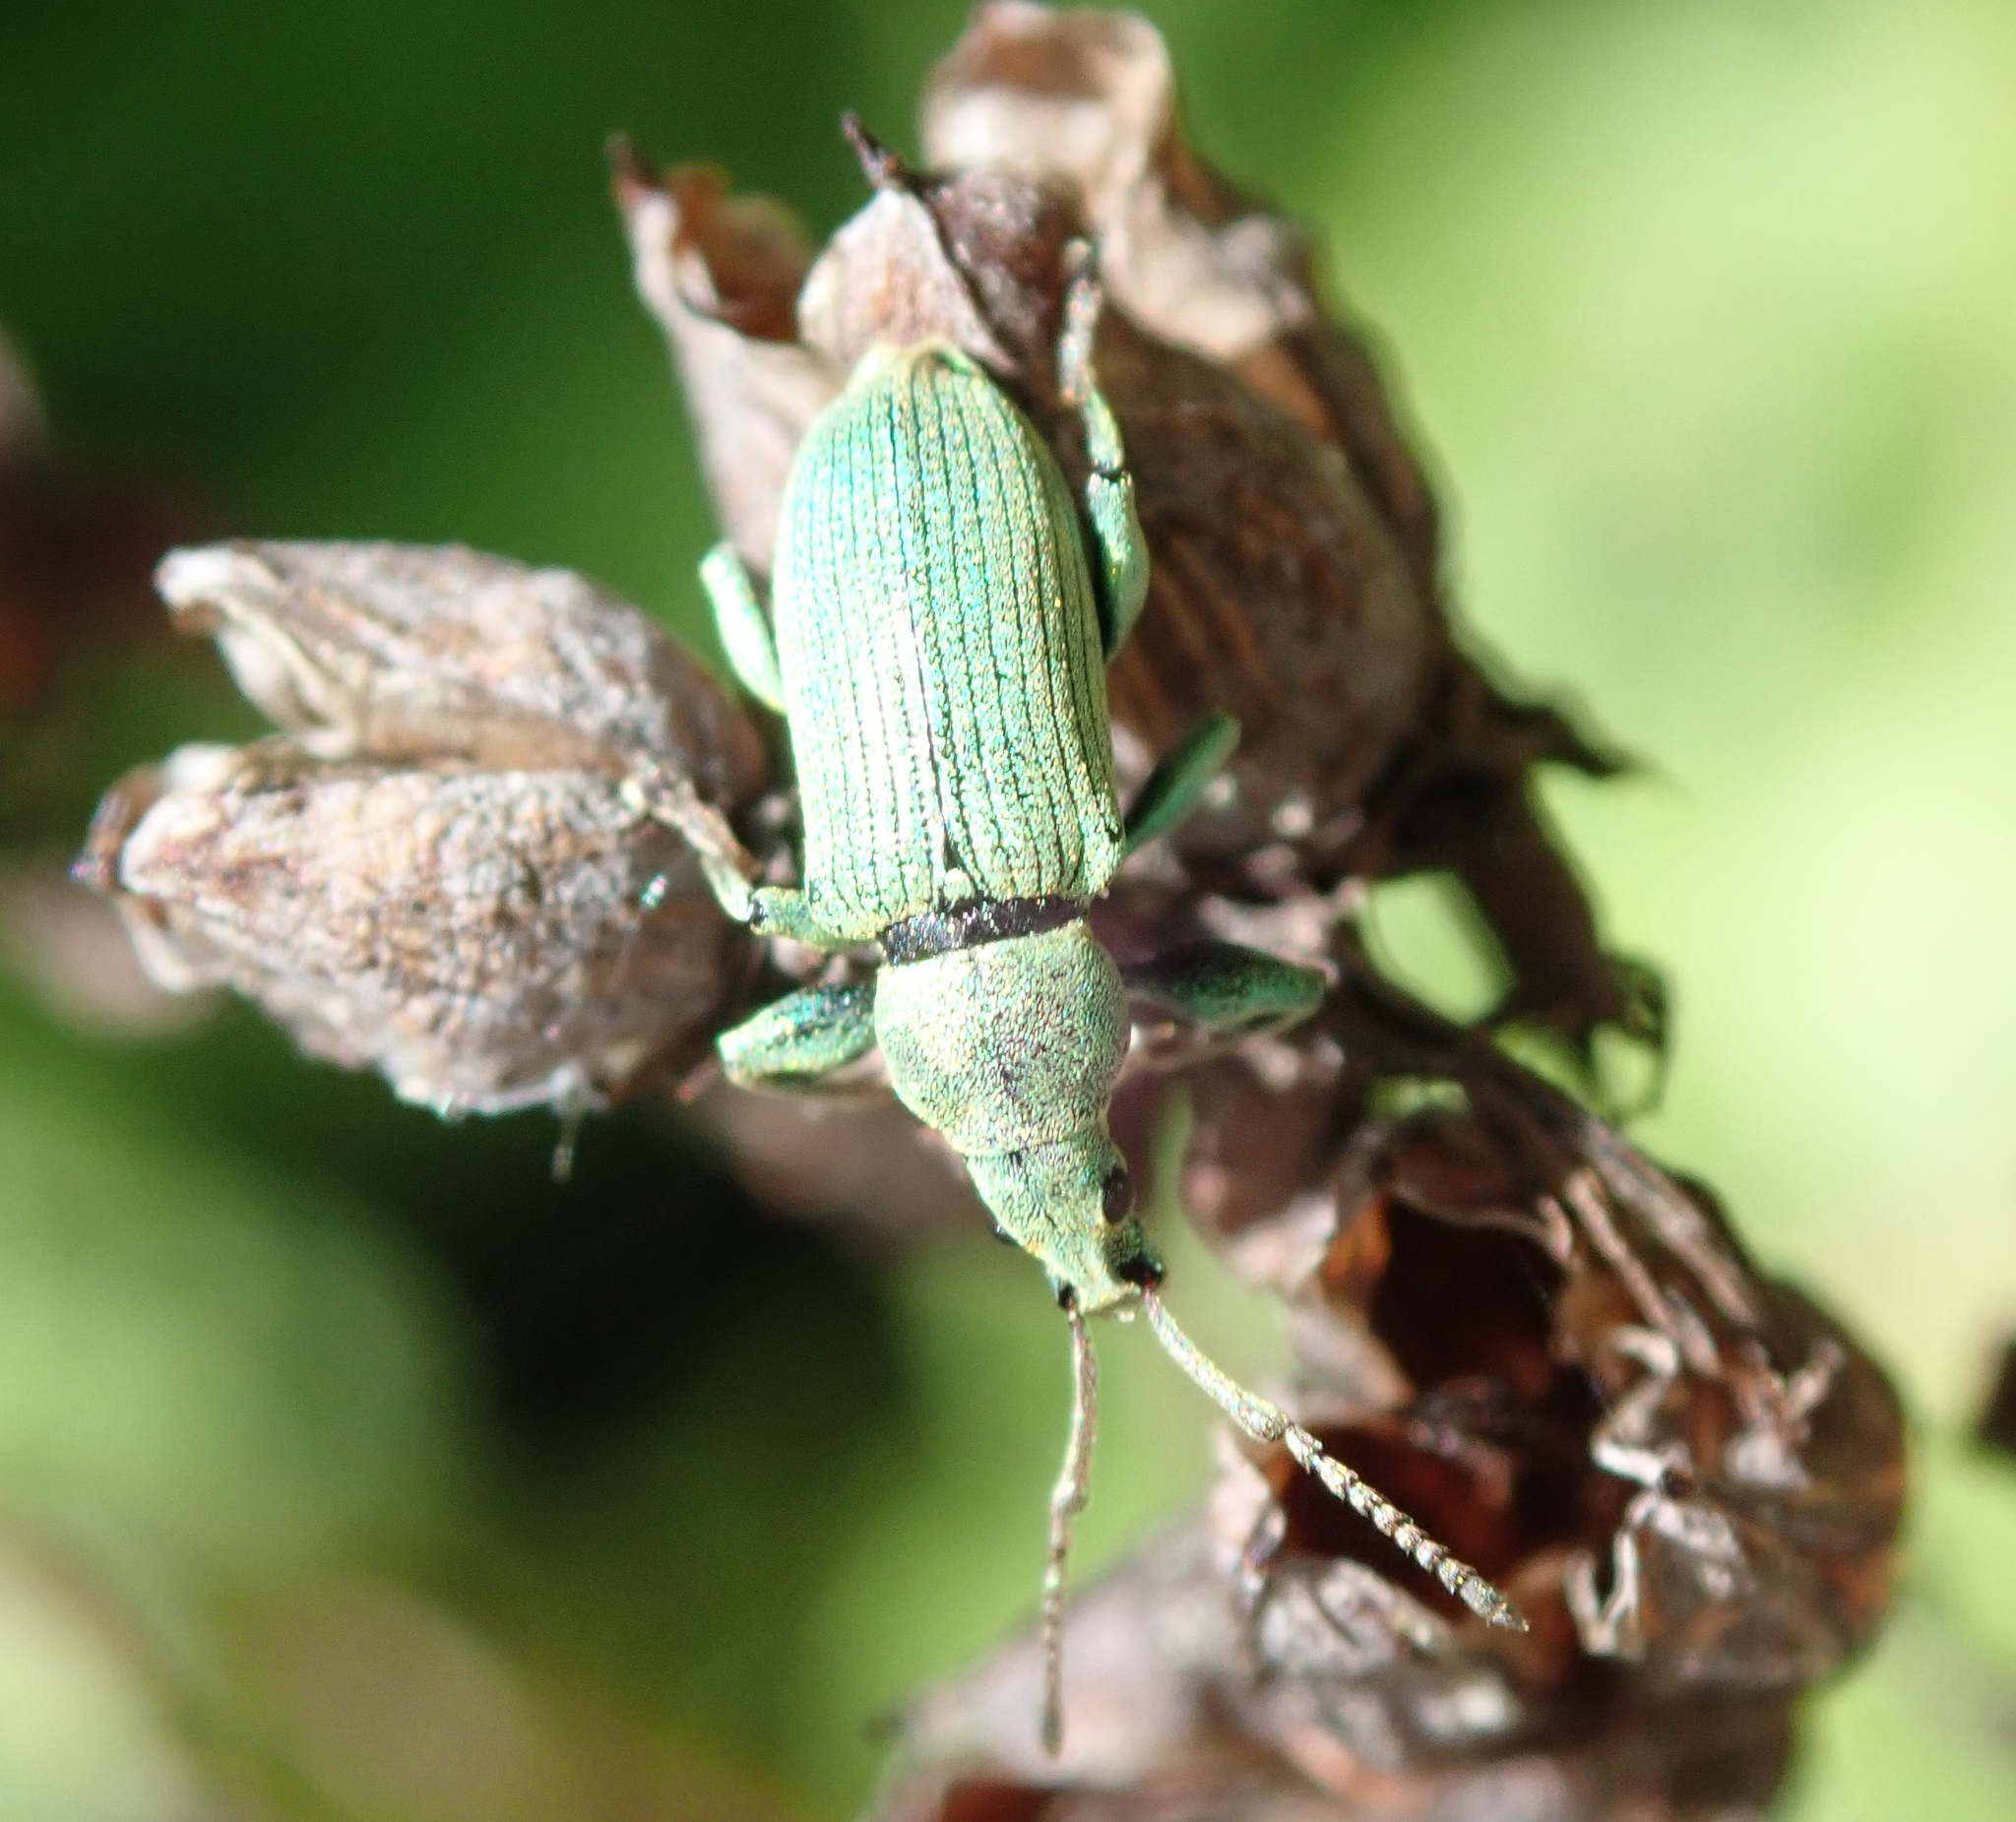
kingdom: Animalia
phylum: Arthropoda
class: Insecta
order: Coleoptera
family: Curculionidae
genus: Phyllobius
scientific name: Phyllobius maculicornis
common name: Green leaf weevil
